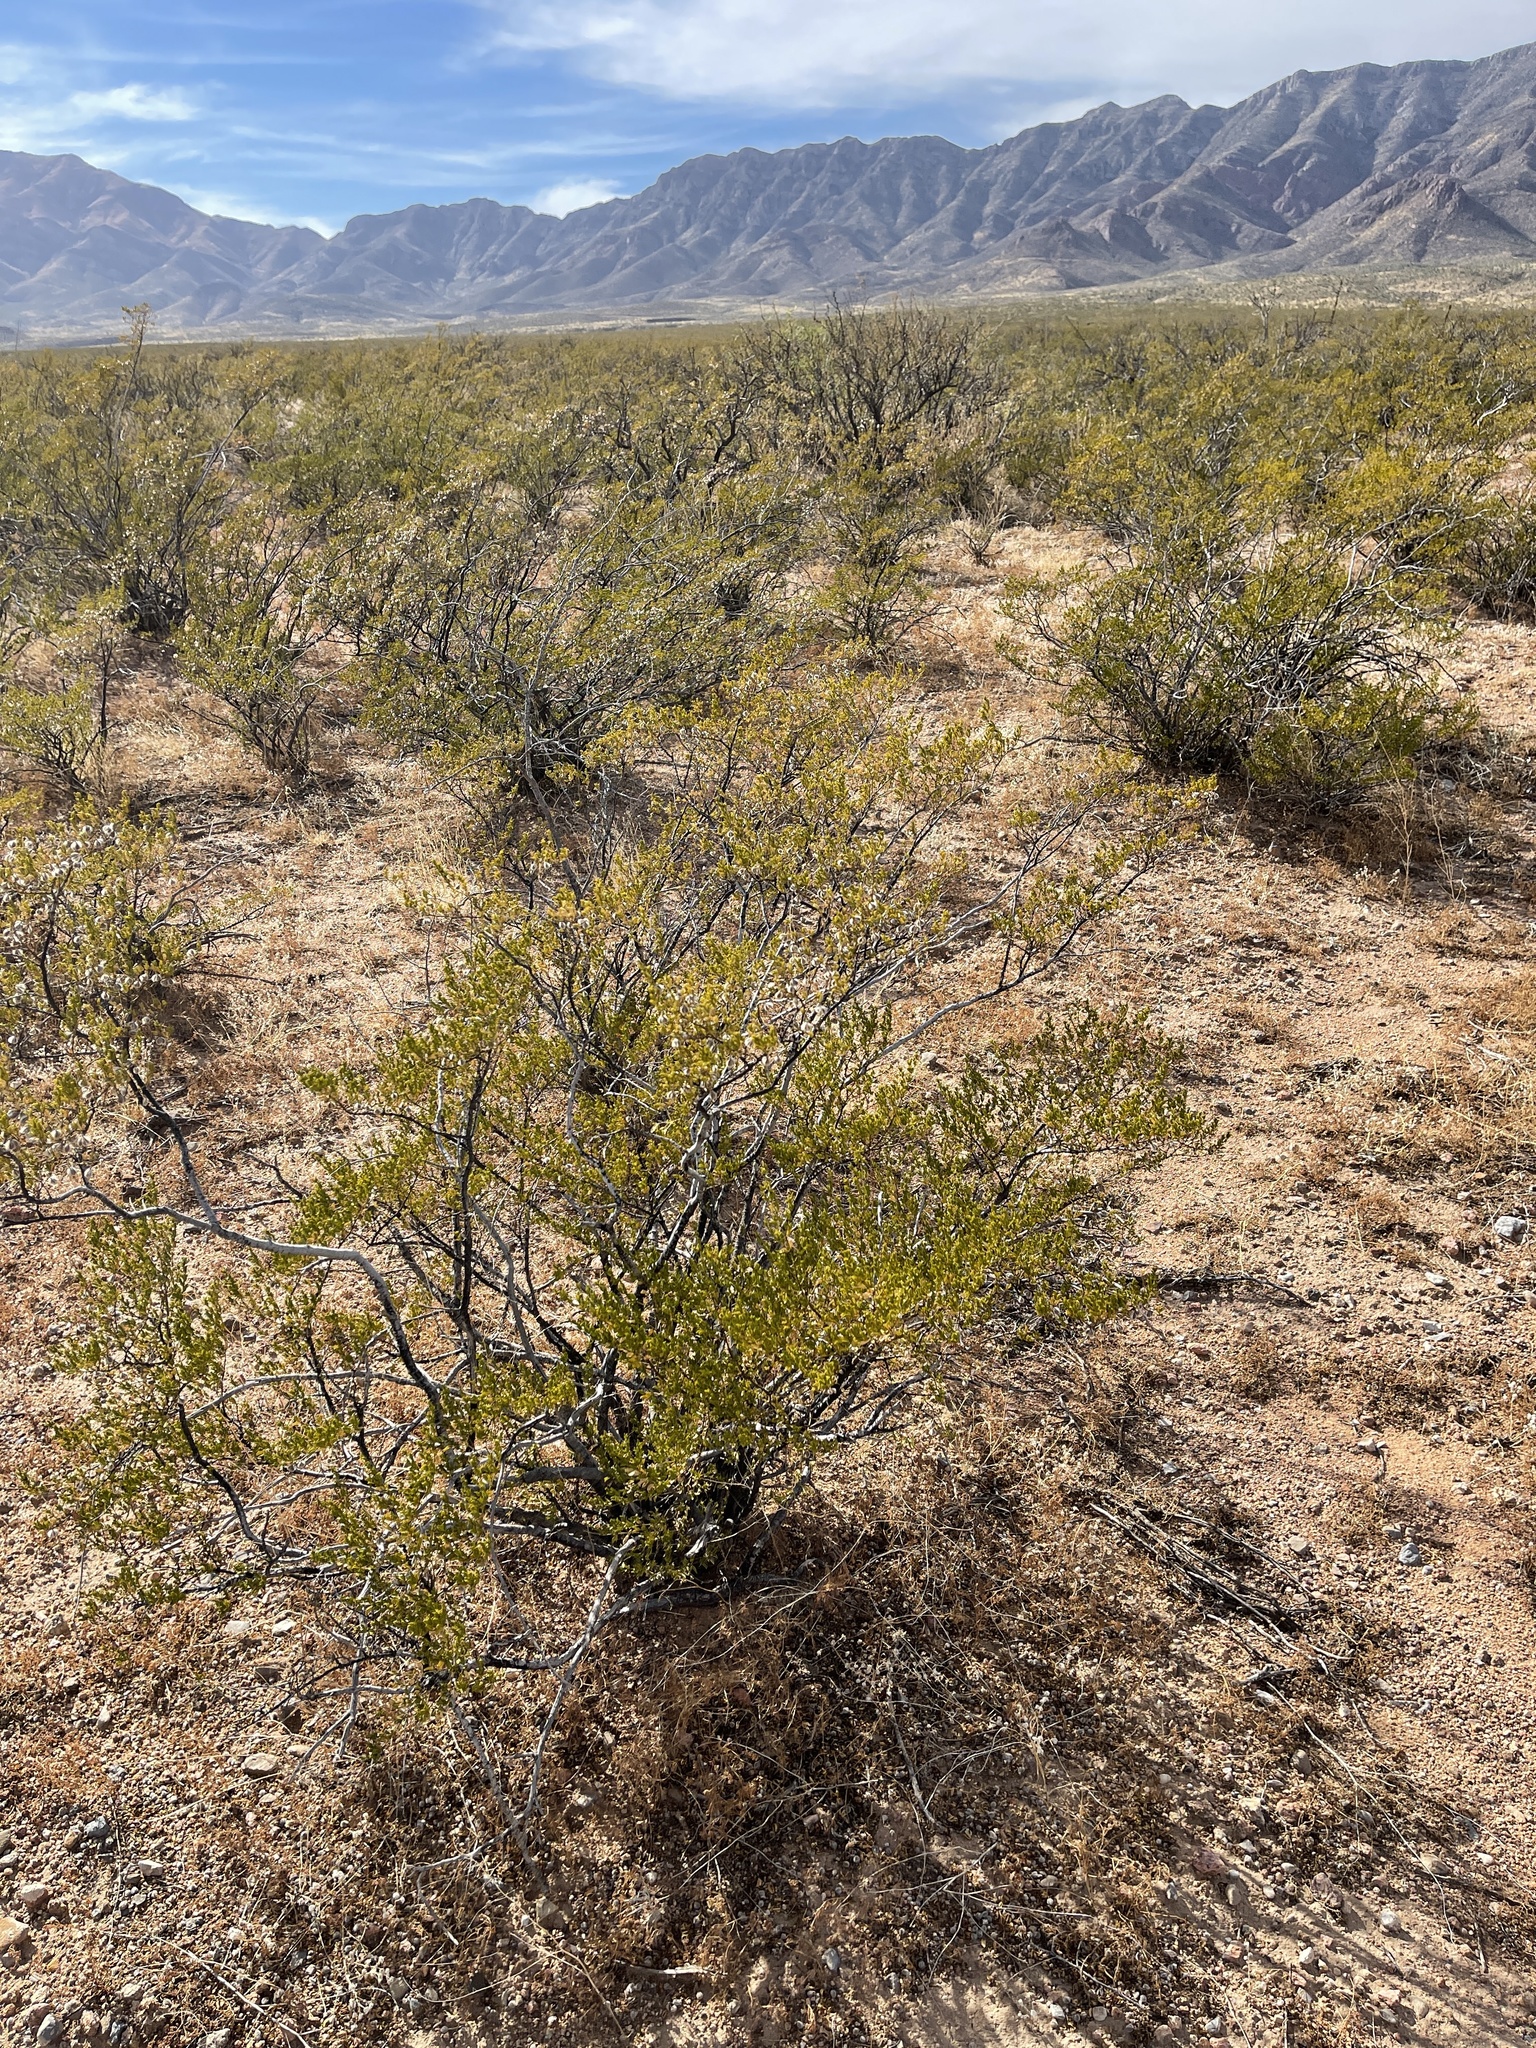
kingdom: Plantae
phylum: Tracheophyta
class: Magnoliopsida
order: Zygophyllales
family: Zygophyllaceae
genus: Larrea
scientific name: Larrea tridentata
